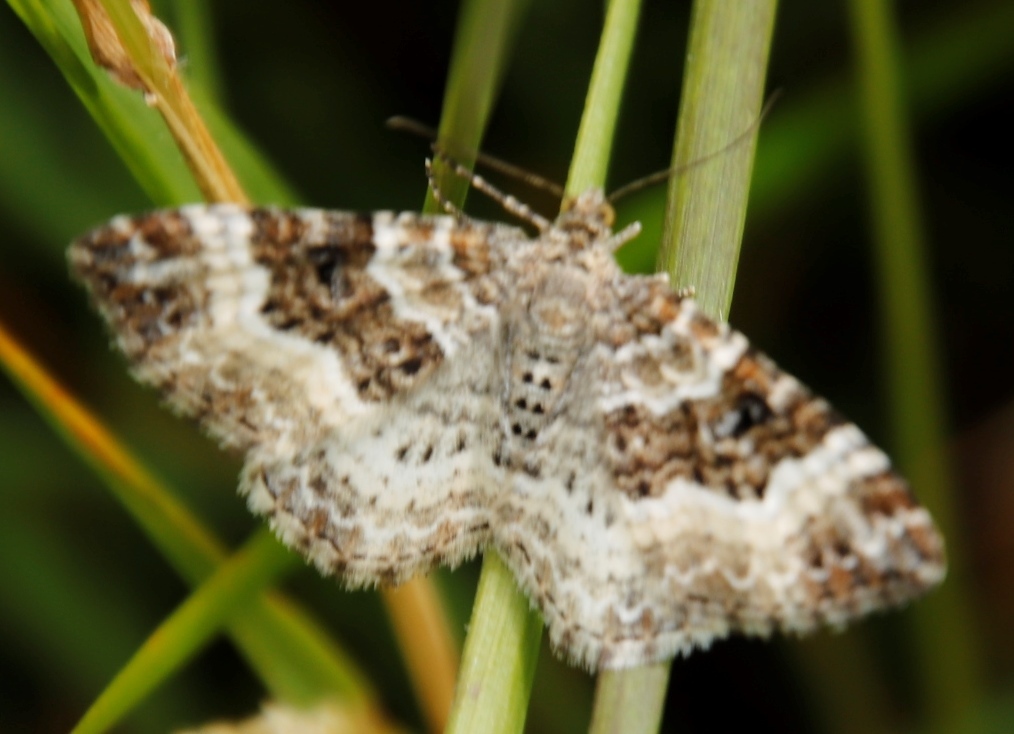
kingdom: Animalia
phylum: Arthropoda
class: Insecta
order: Lepidoptera
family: Geometridae
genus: Epirrhoe
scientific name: Epirrhoe alternata
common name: Common carpet
